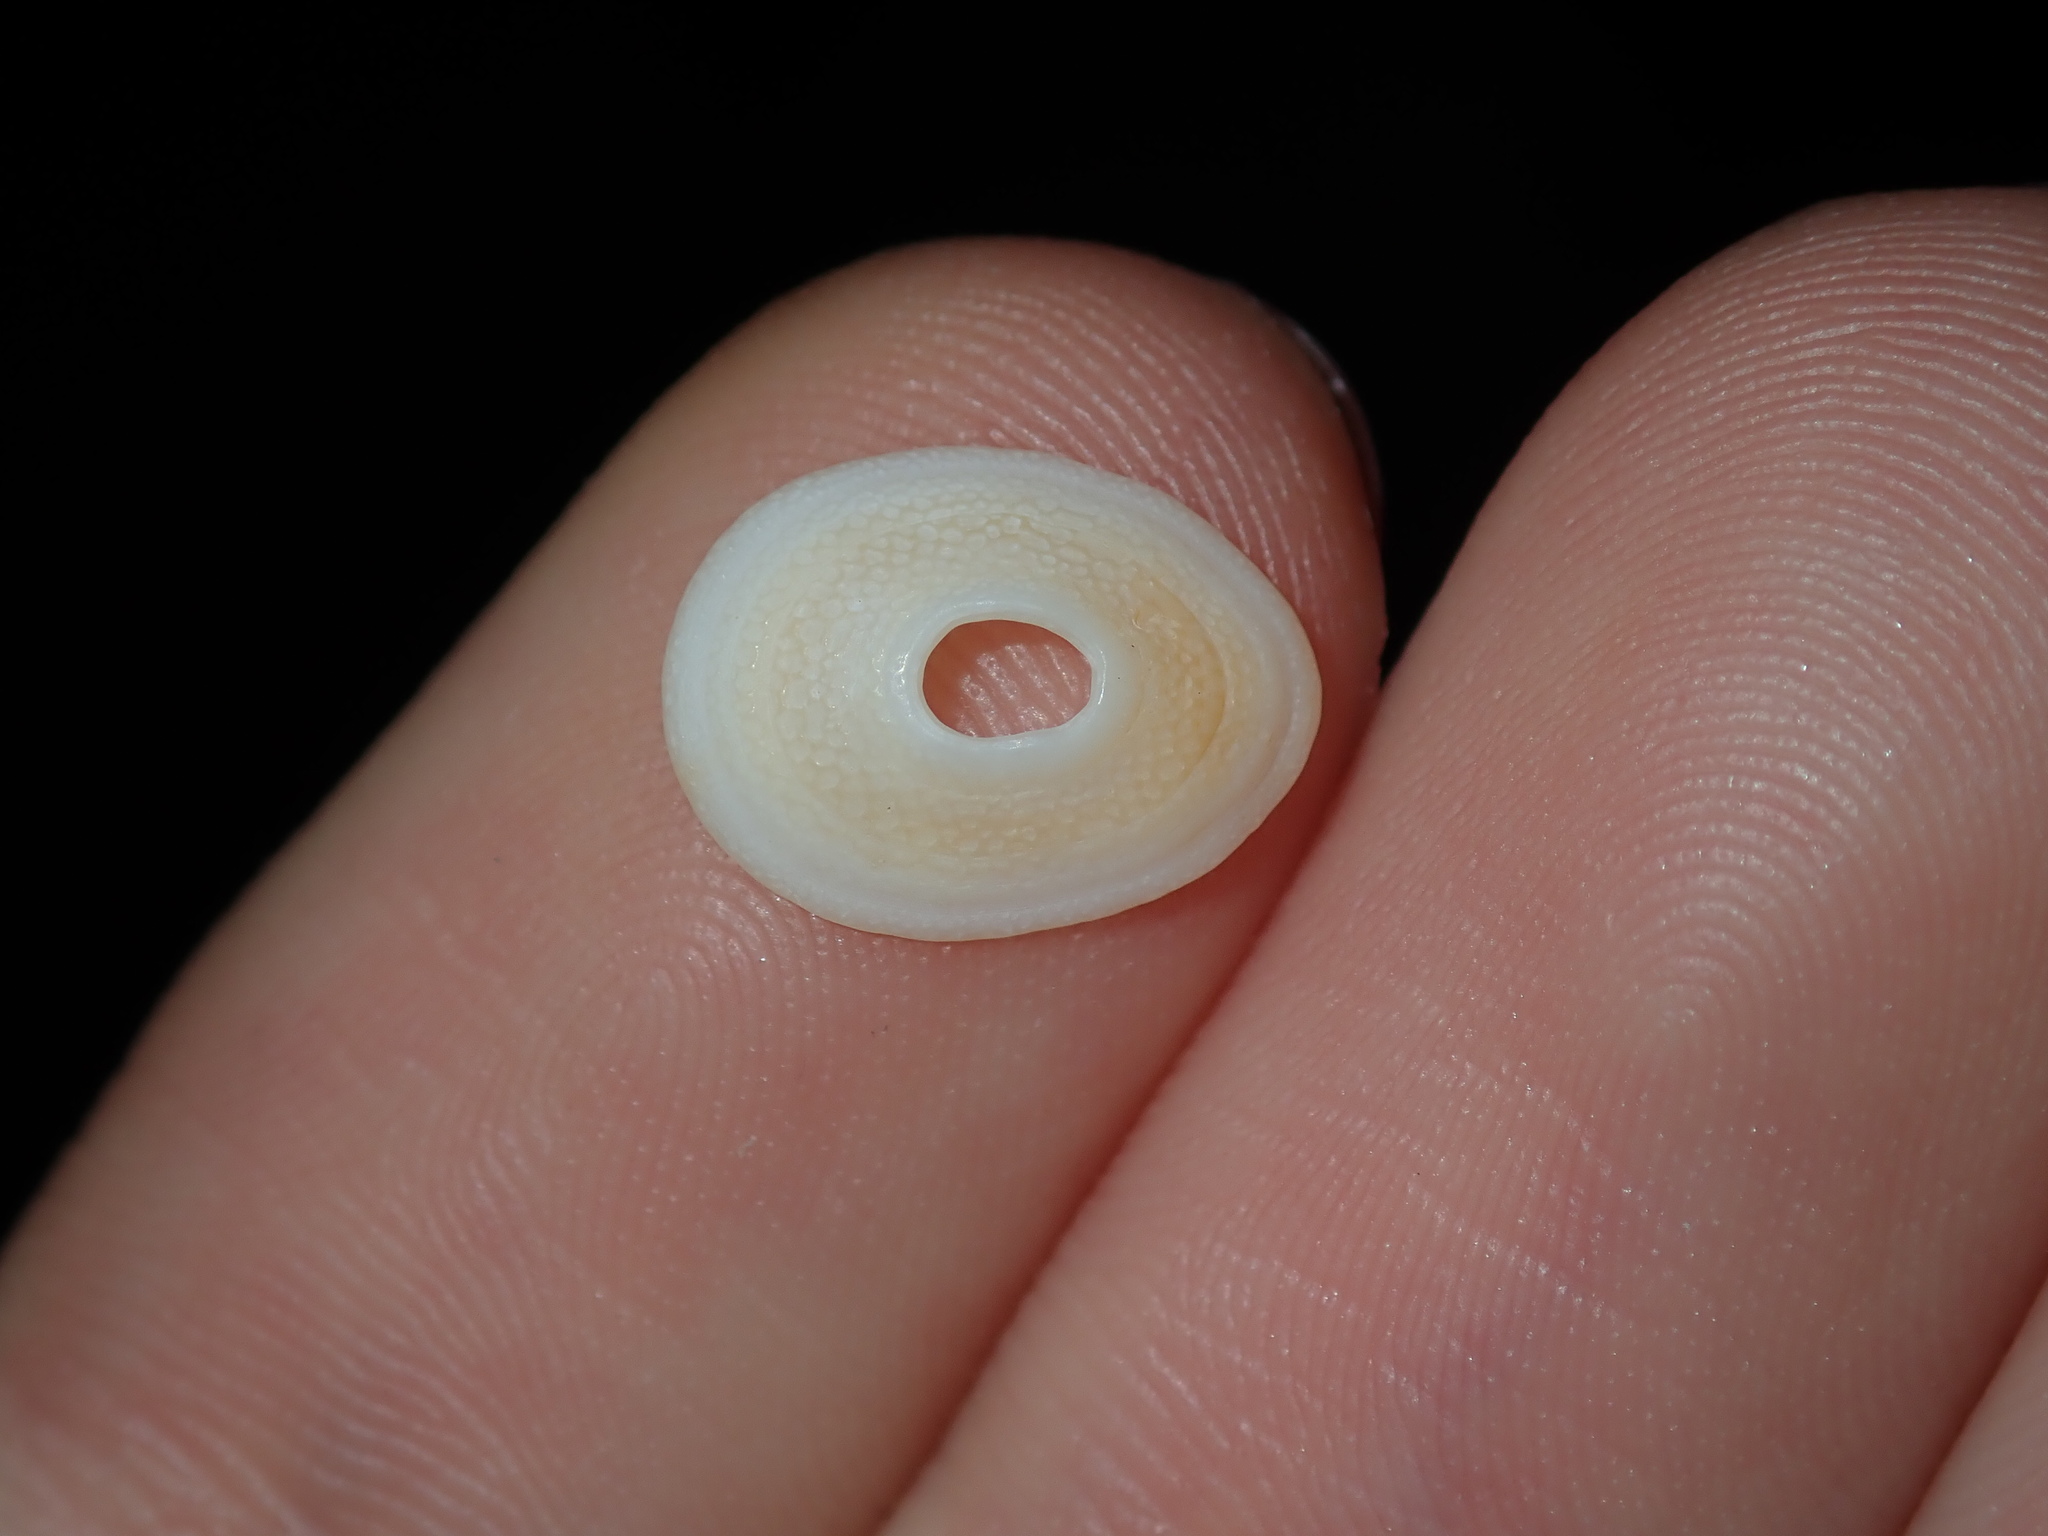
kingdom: Animalia
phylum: Mollusca
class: Gastropoda
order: Lepetellida
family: Fissurellidae
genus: Cosmetalepas
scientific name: Cosmetalepas concatenata
